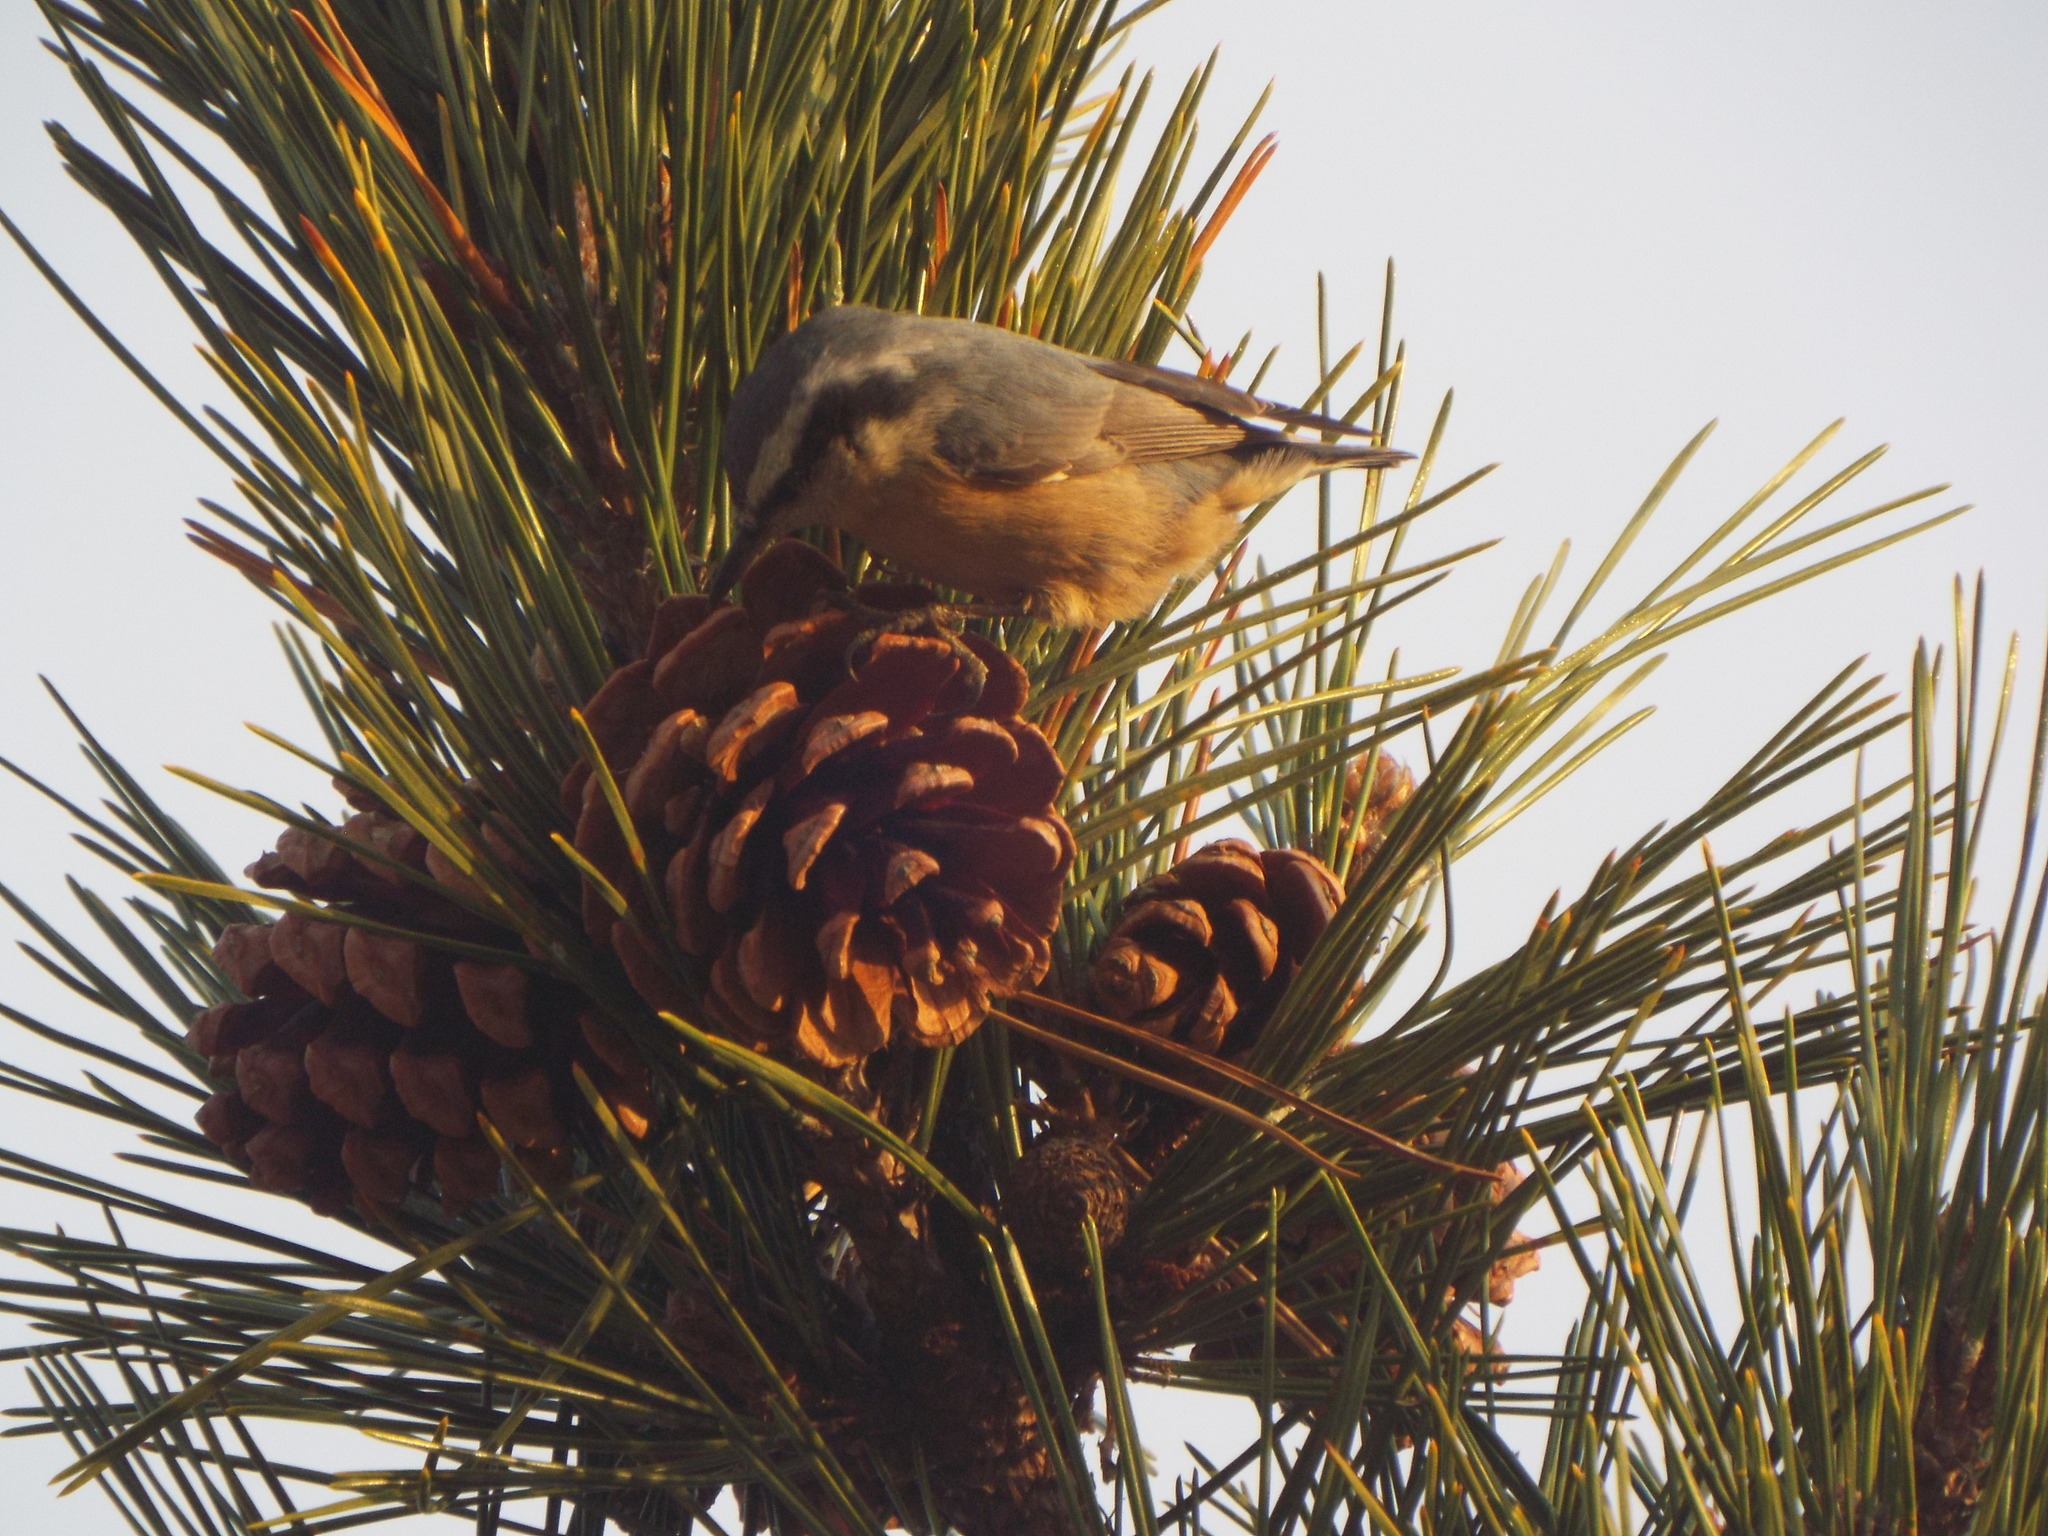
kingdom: Animalia
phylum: Chordata
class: Aves
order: Passeriformes
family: Sittidae
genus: Sitta
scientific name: Sitta canadensis
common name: Red-breasted nuthatch
